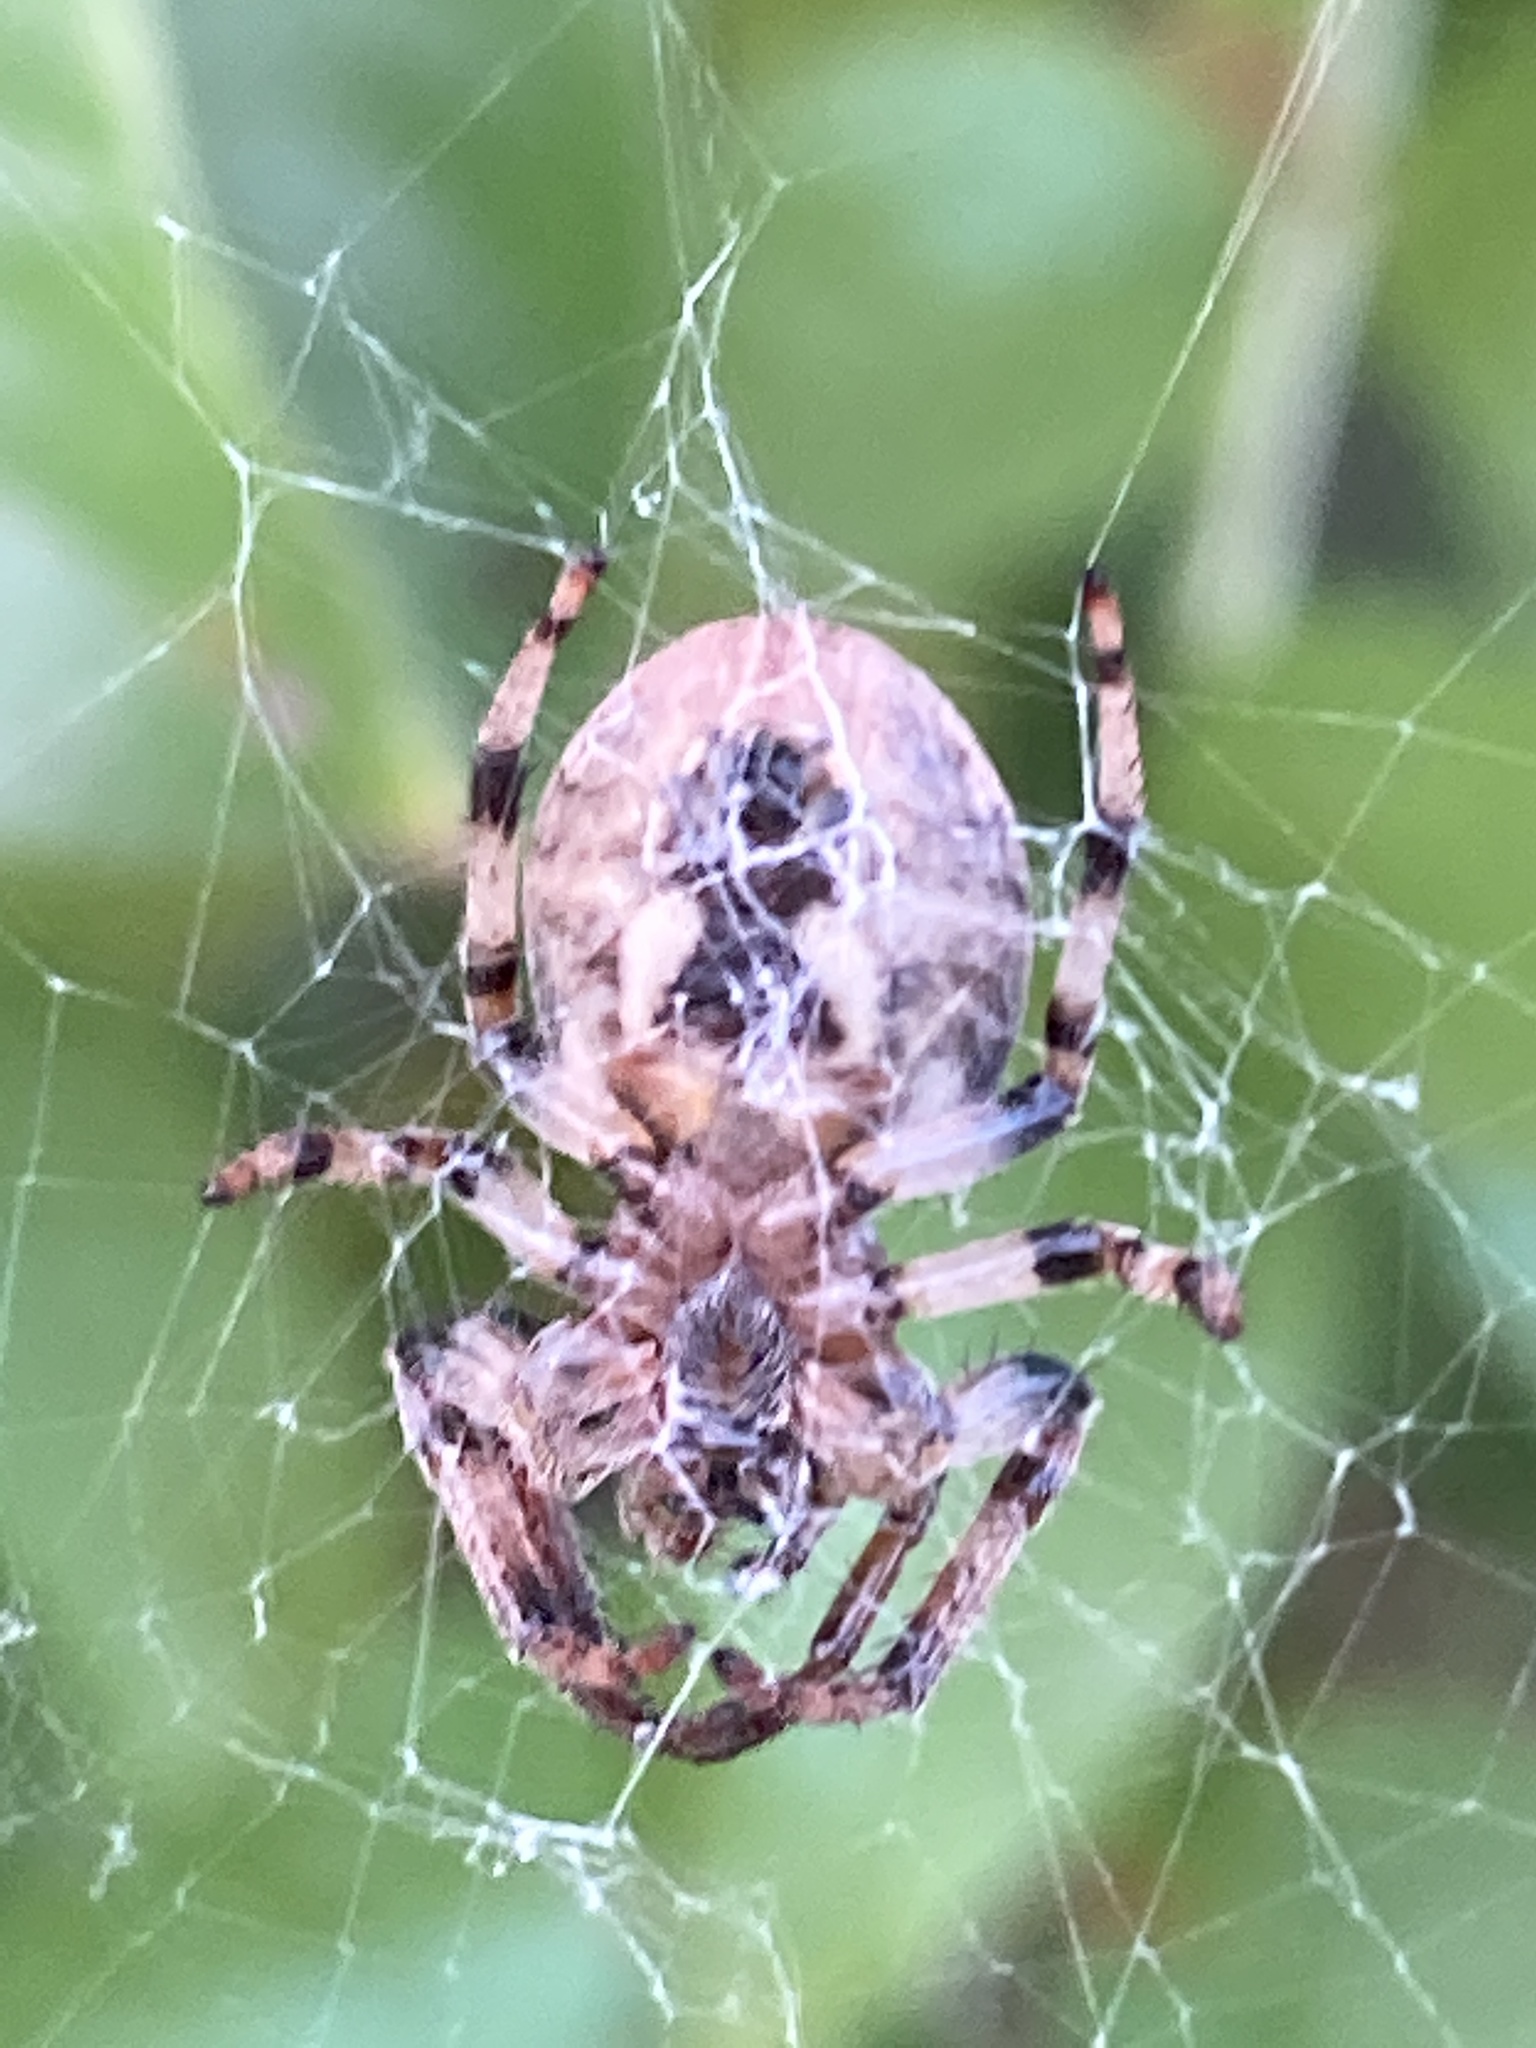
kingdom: Animalia
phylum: Arthropoda
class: Arachnida
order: Araneae
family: Araneidae
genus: Larinioides
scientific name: Larinioides cornutus
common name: Furrow orbweaver
